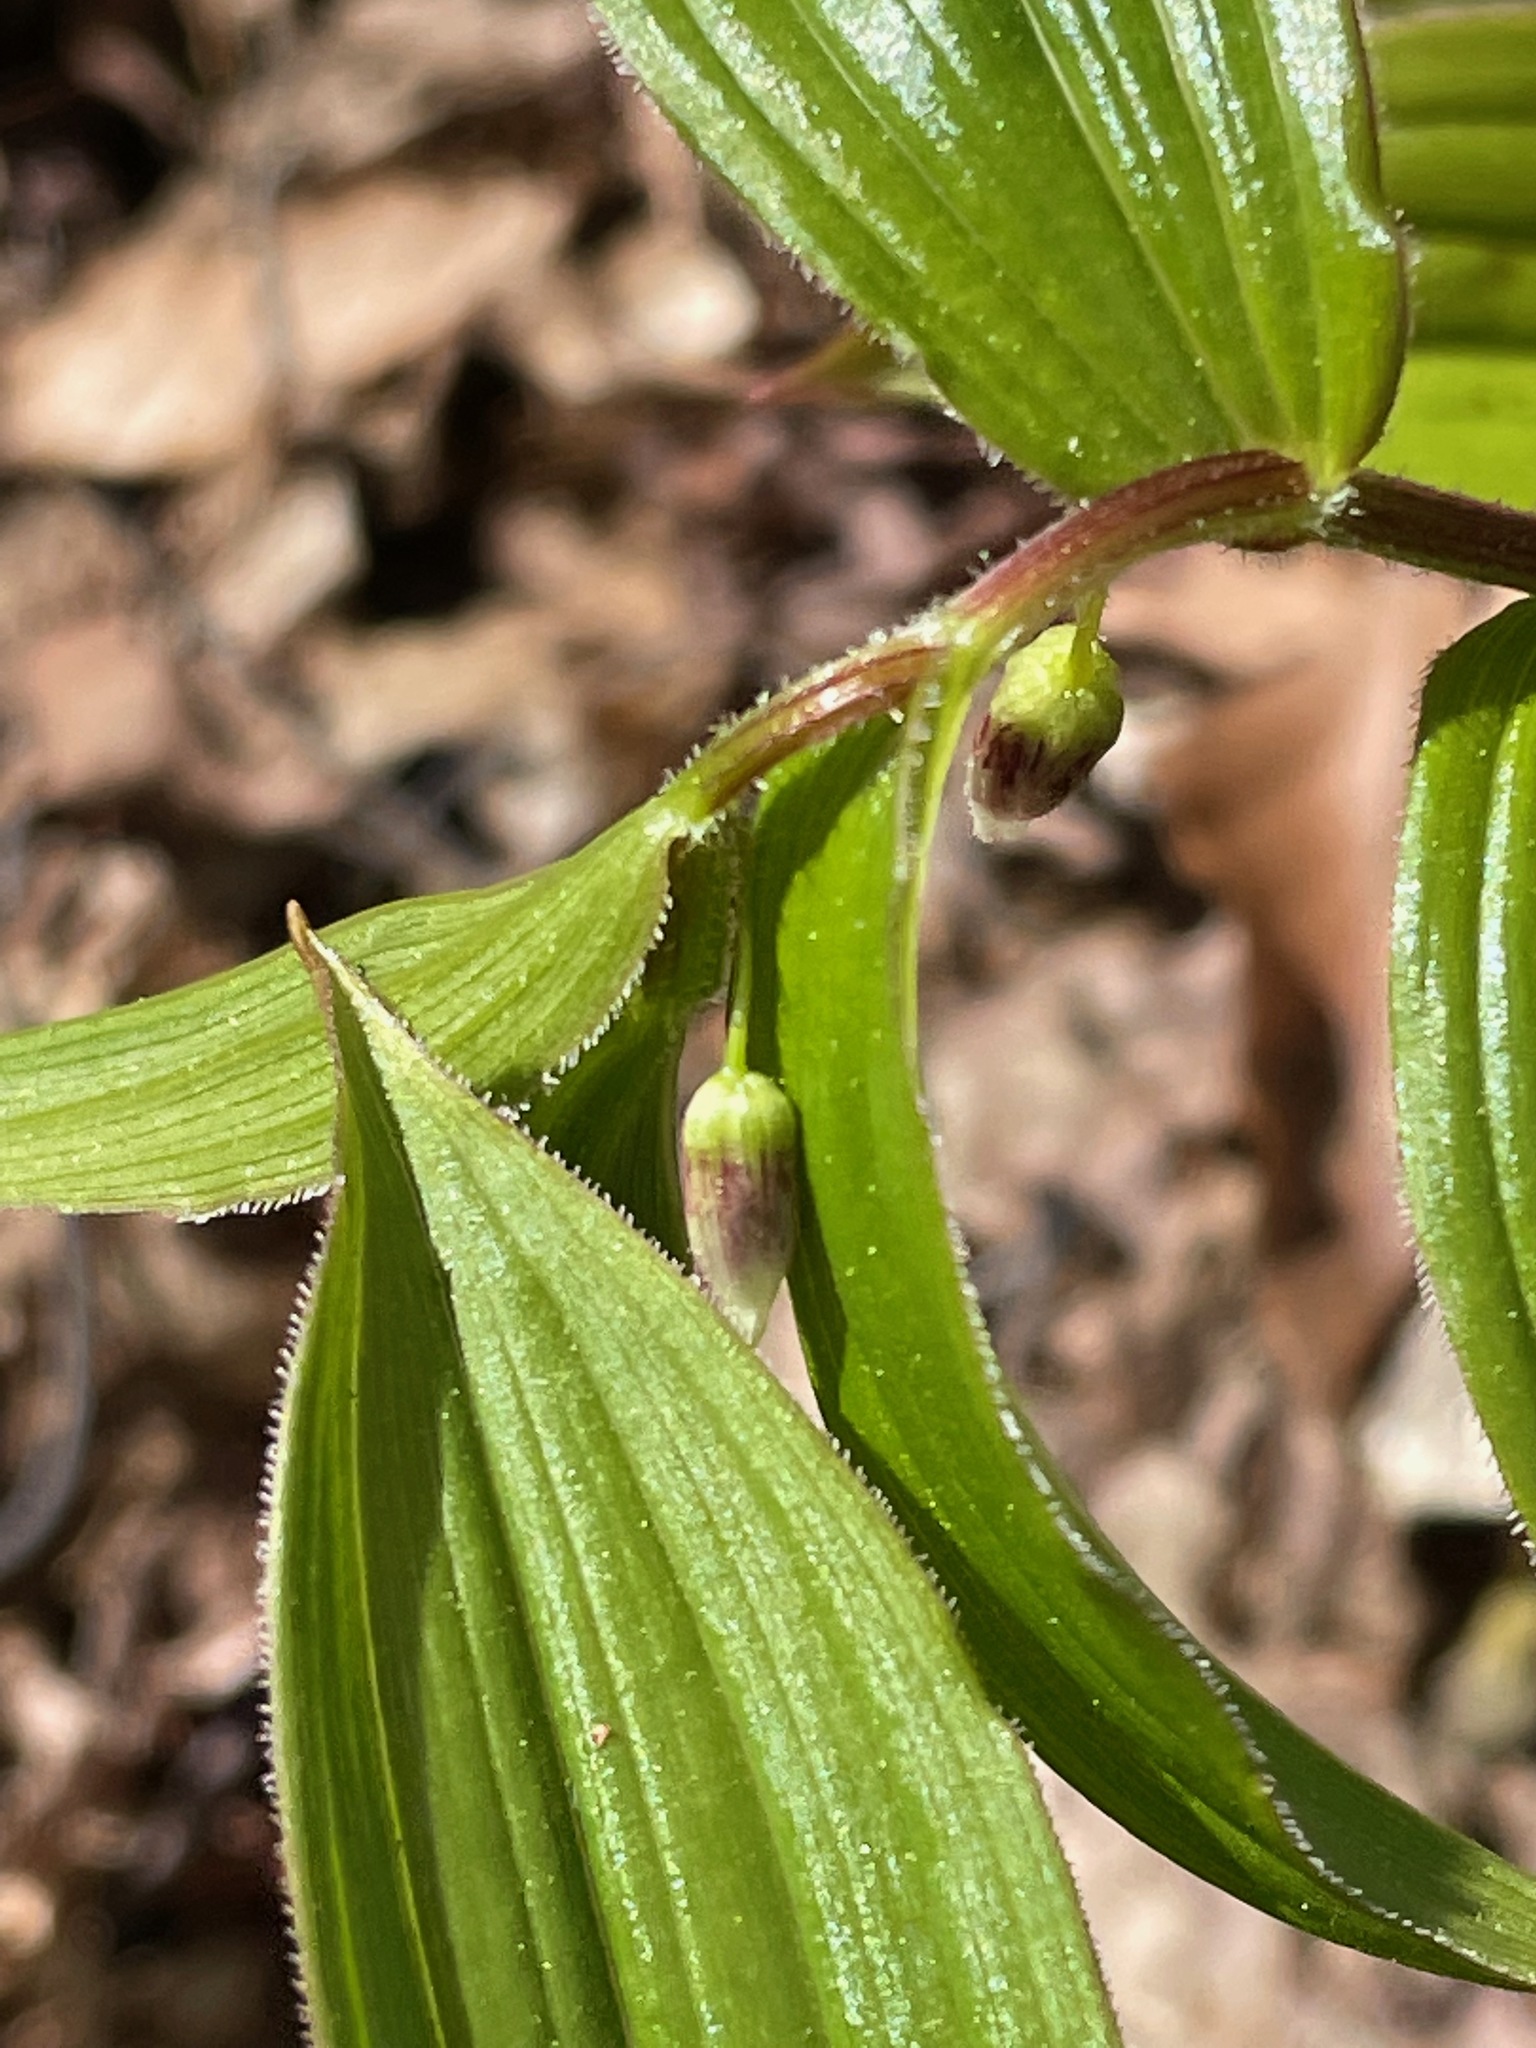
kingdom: Plantae
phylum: Tracheophyta
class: Liliopsida
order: Liliales
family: Liliaceae
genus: Streptopus
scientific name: Streptopus lanceolatus
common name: Rose mandarin
